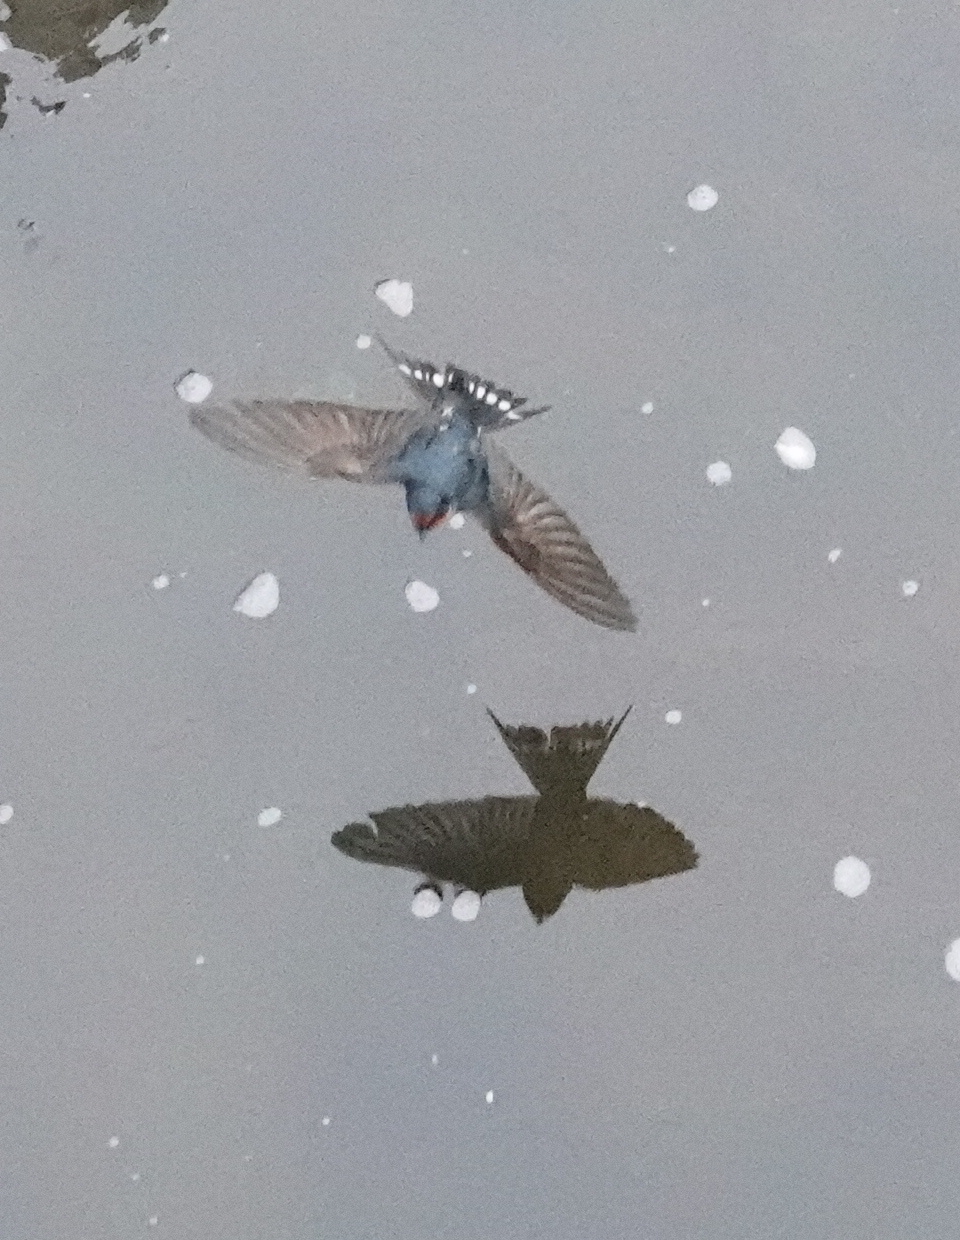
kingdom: Animalia
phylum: Chordata
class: Aves
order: Passeriformes
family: Hirundinidae
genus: Hirundo
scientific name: Hirundo neoxena
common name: Welcome swallow
